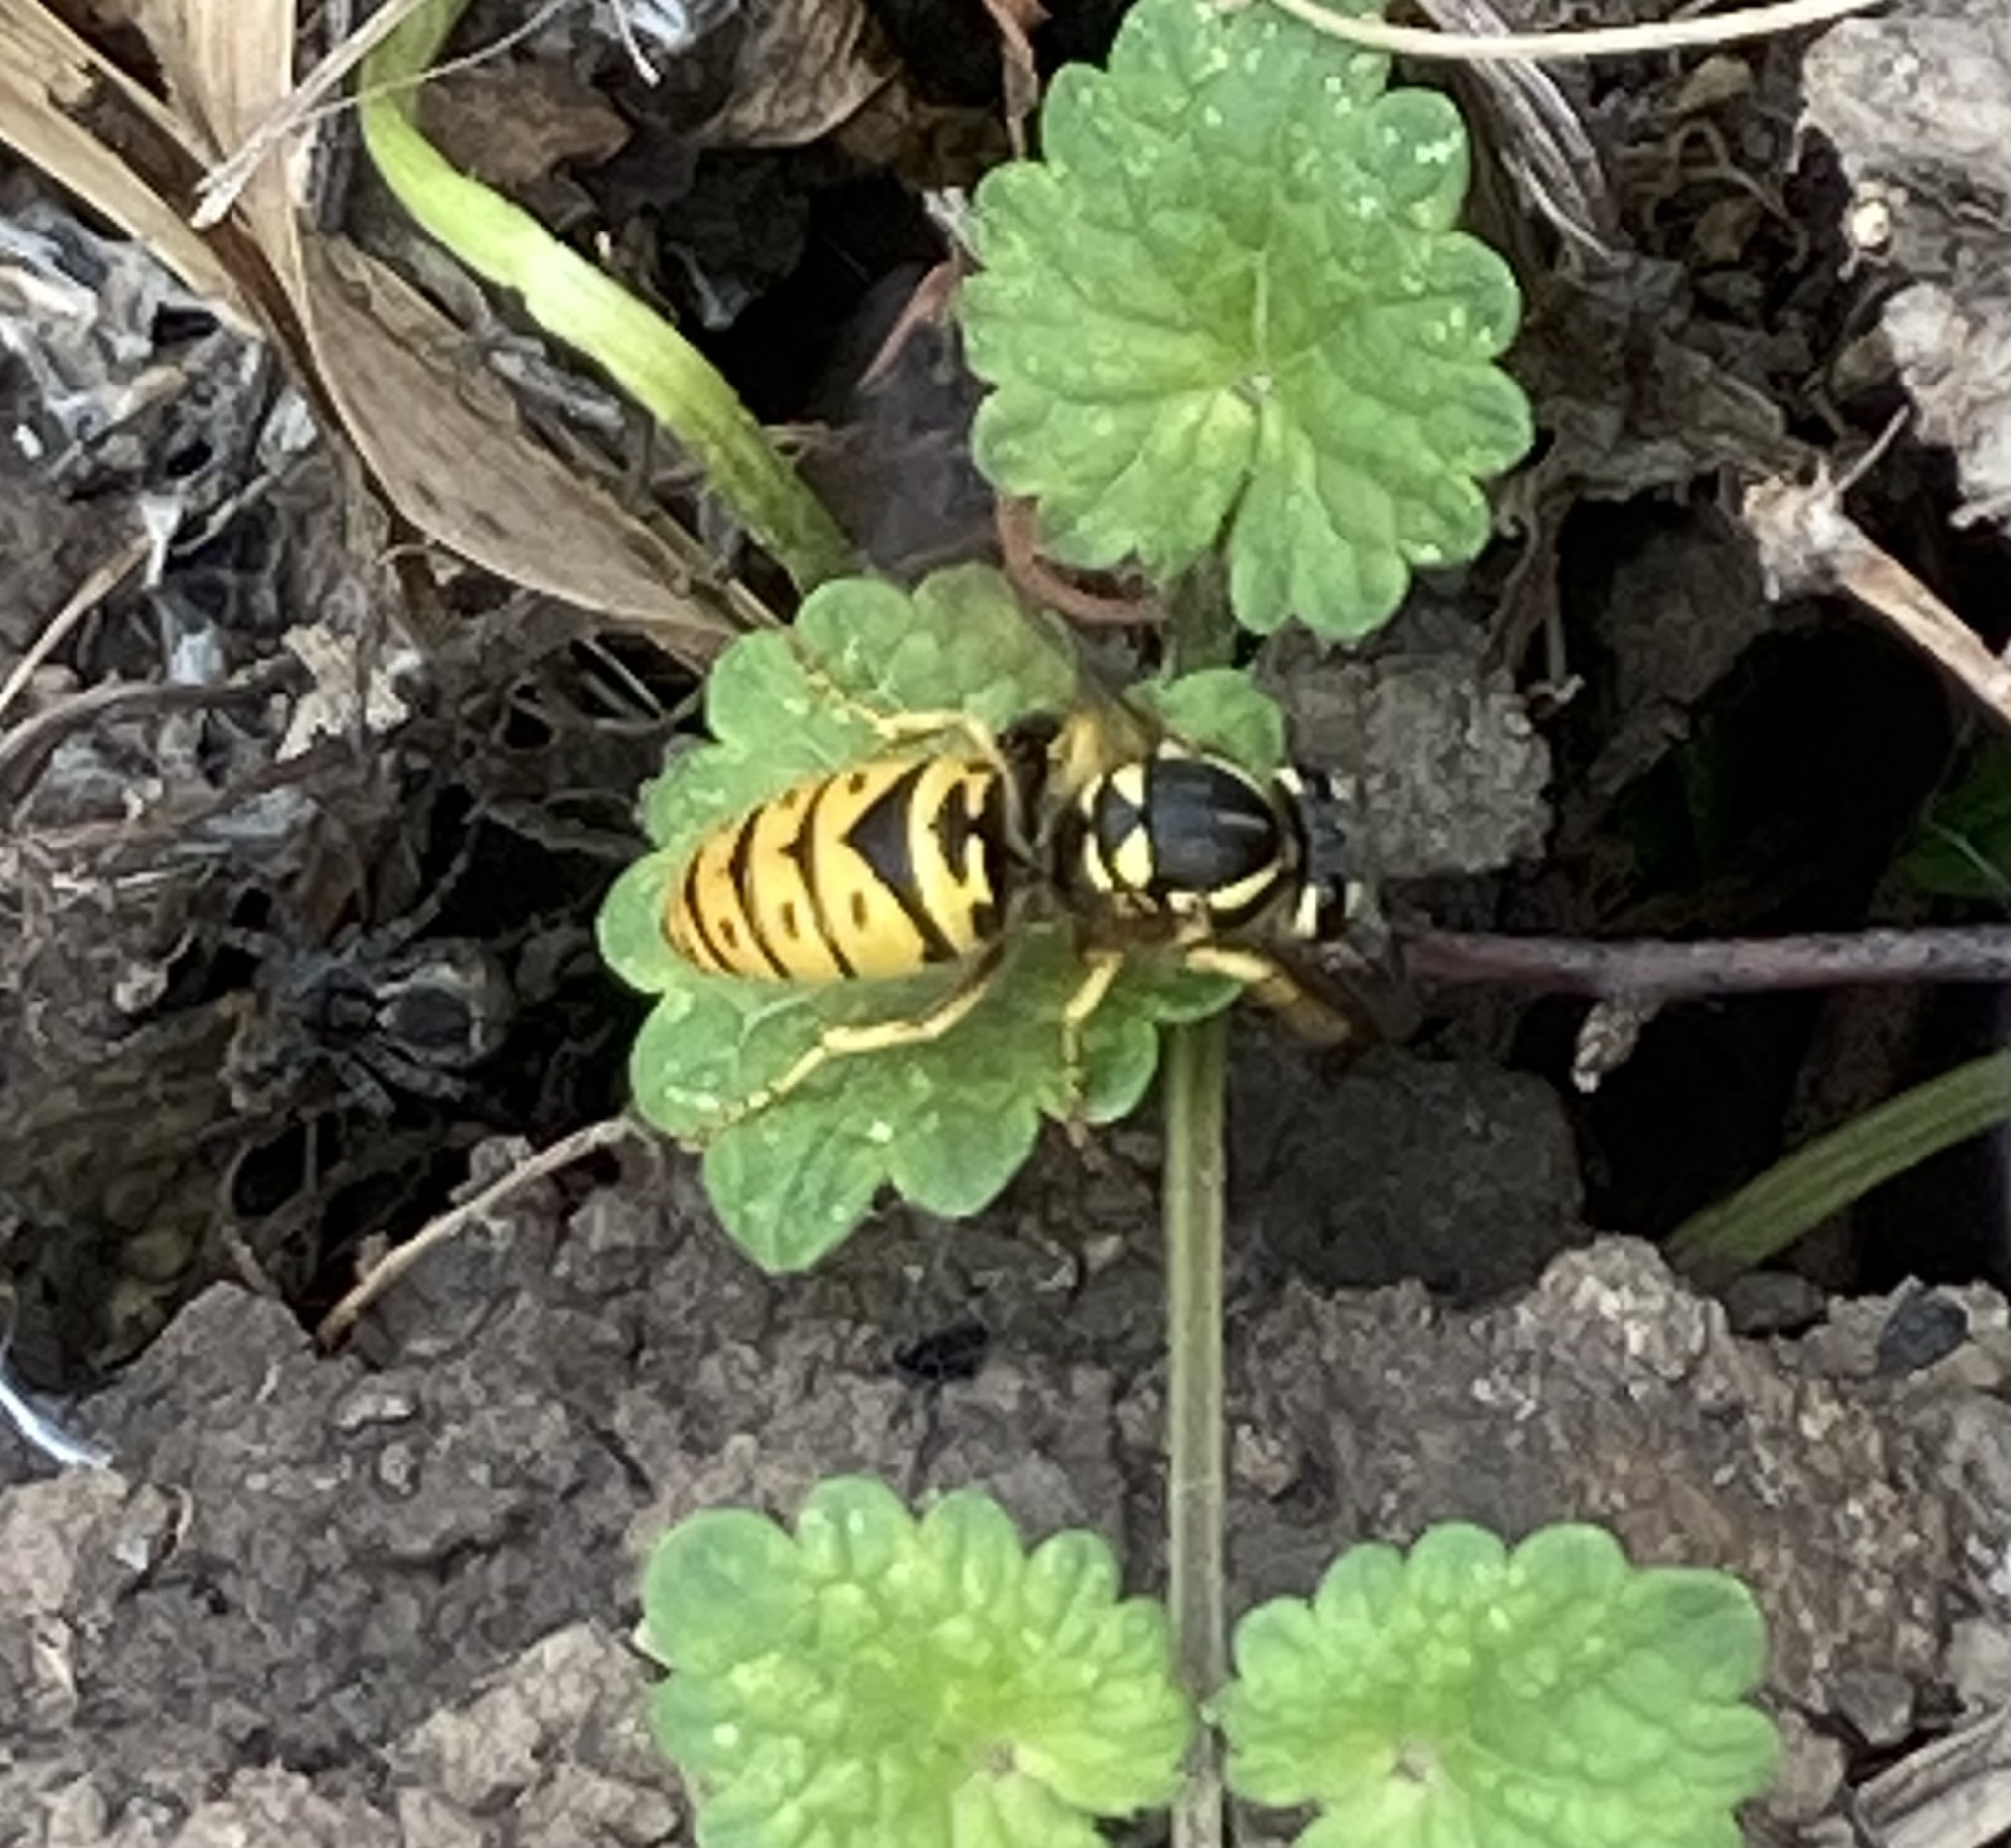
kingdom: Animalia
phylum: Arthropoda
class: Insecta
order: Hymenoptera
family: Vespidae
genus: Vespula
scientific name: Vespula maculifrons
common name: Eastern yellowjacket
